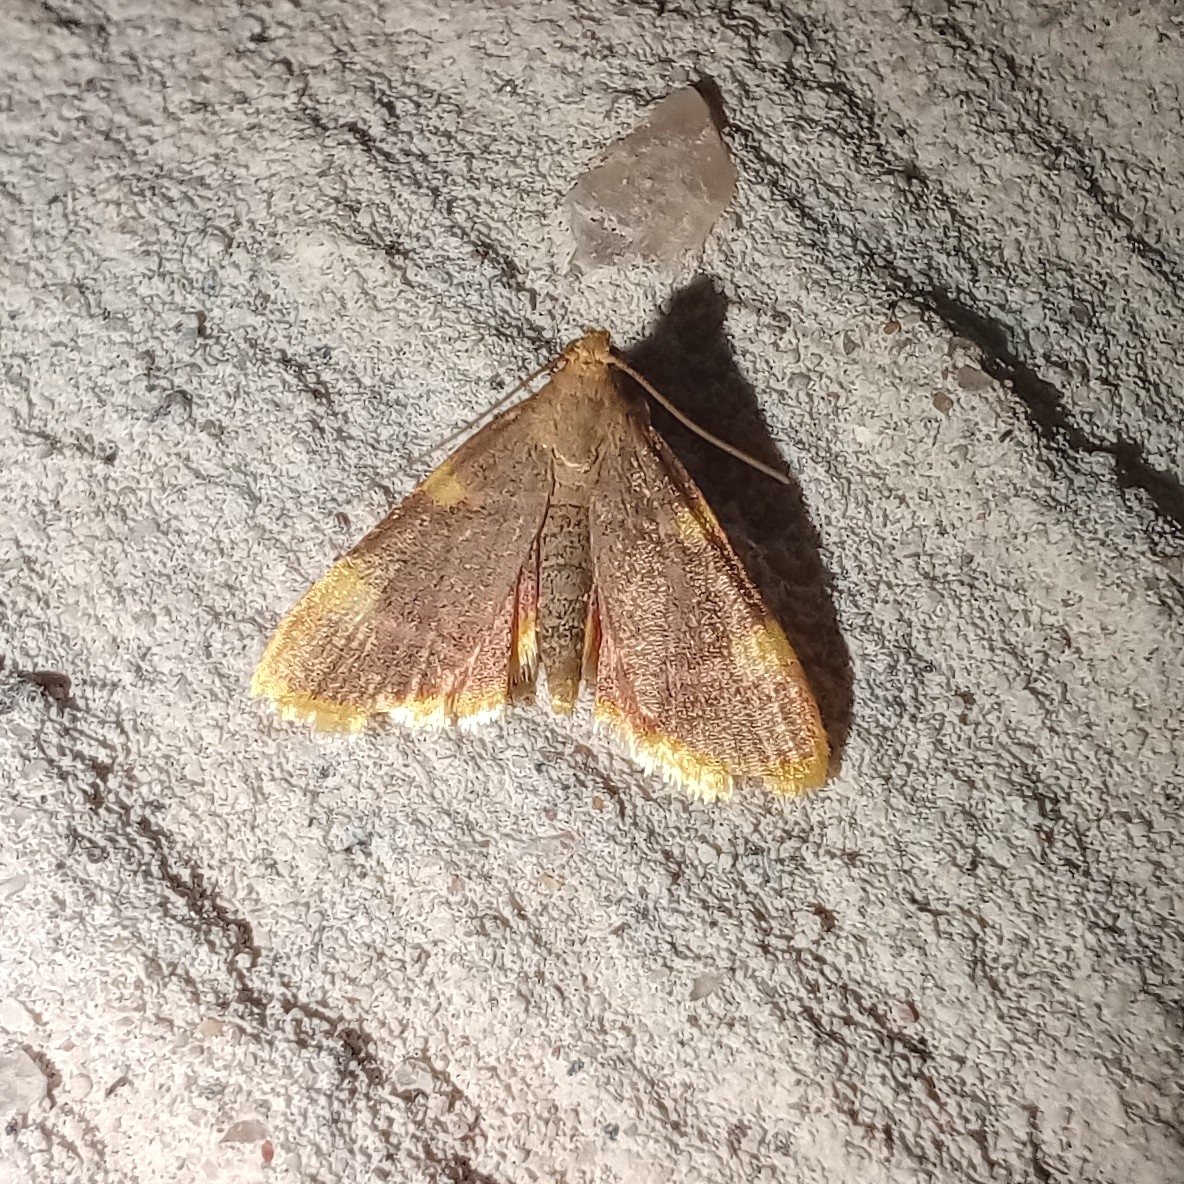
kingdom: Animalia
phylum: Arthropoda
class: Insecta
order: Lepidoptera
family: Pyralidae
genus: Hypsopygia
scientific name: Hypsopygia costalis
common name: Gold triangle
